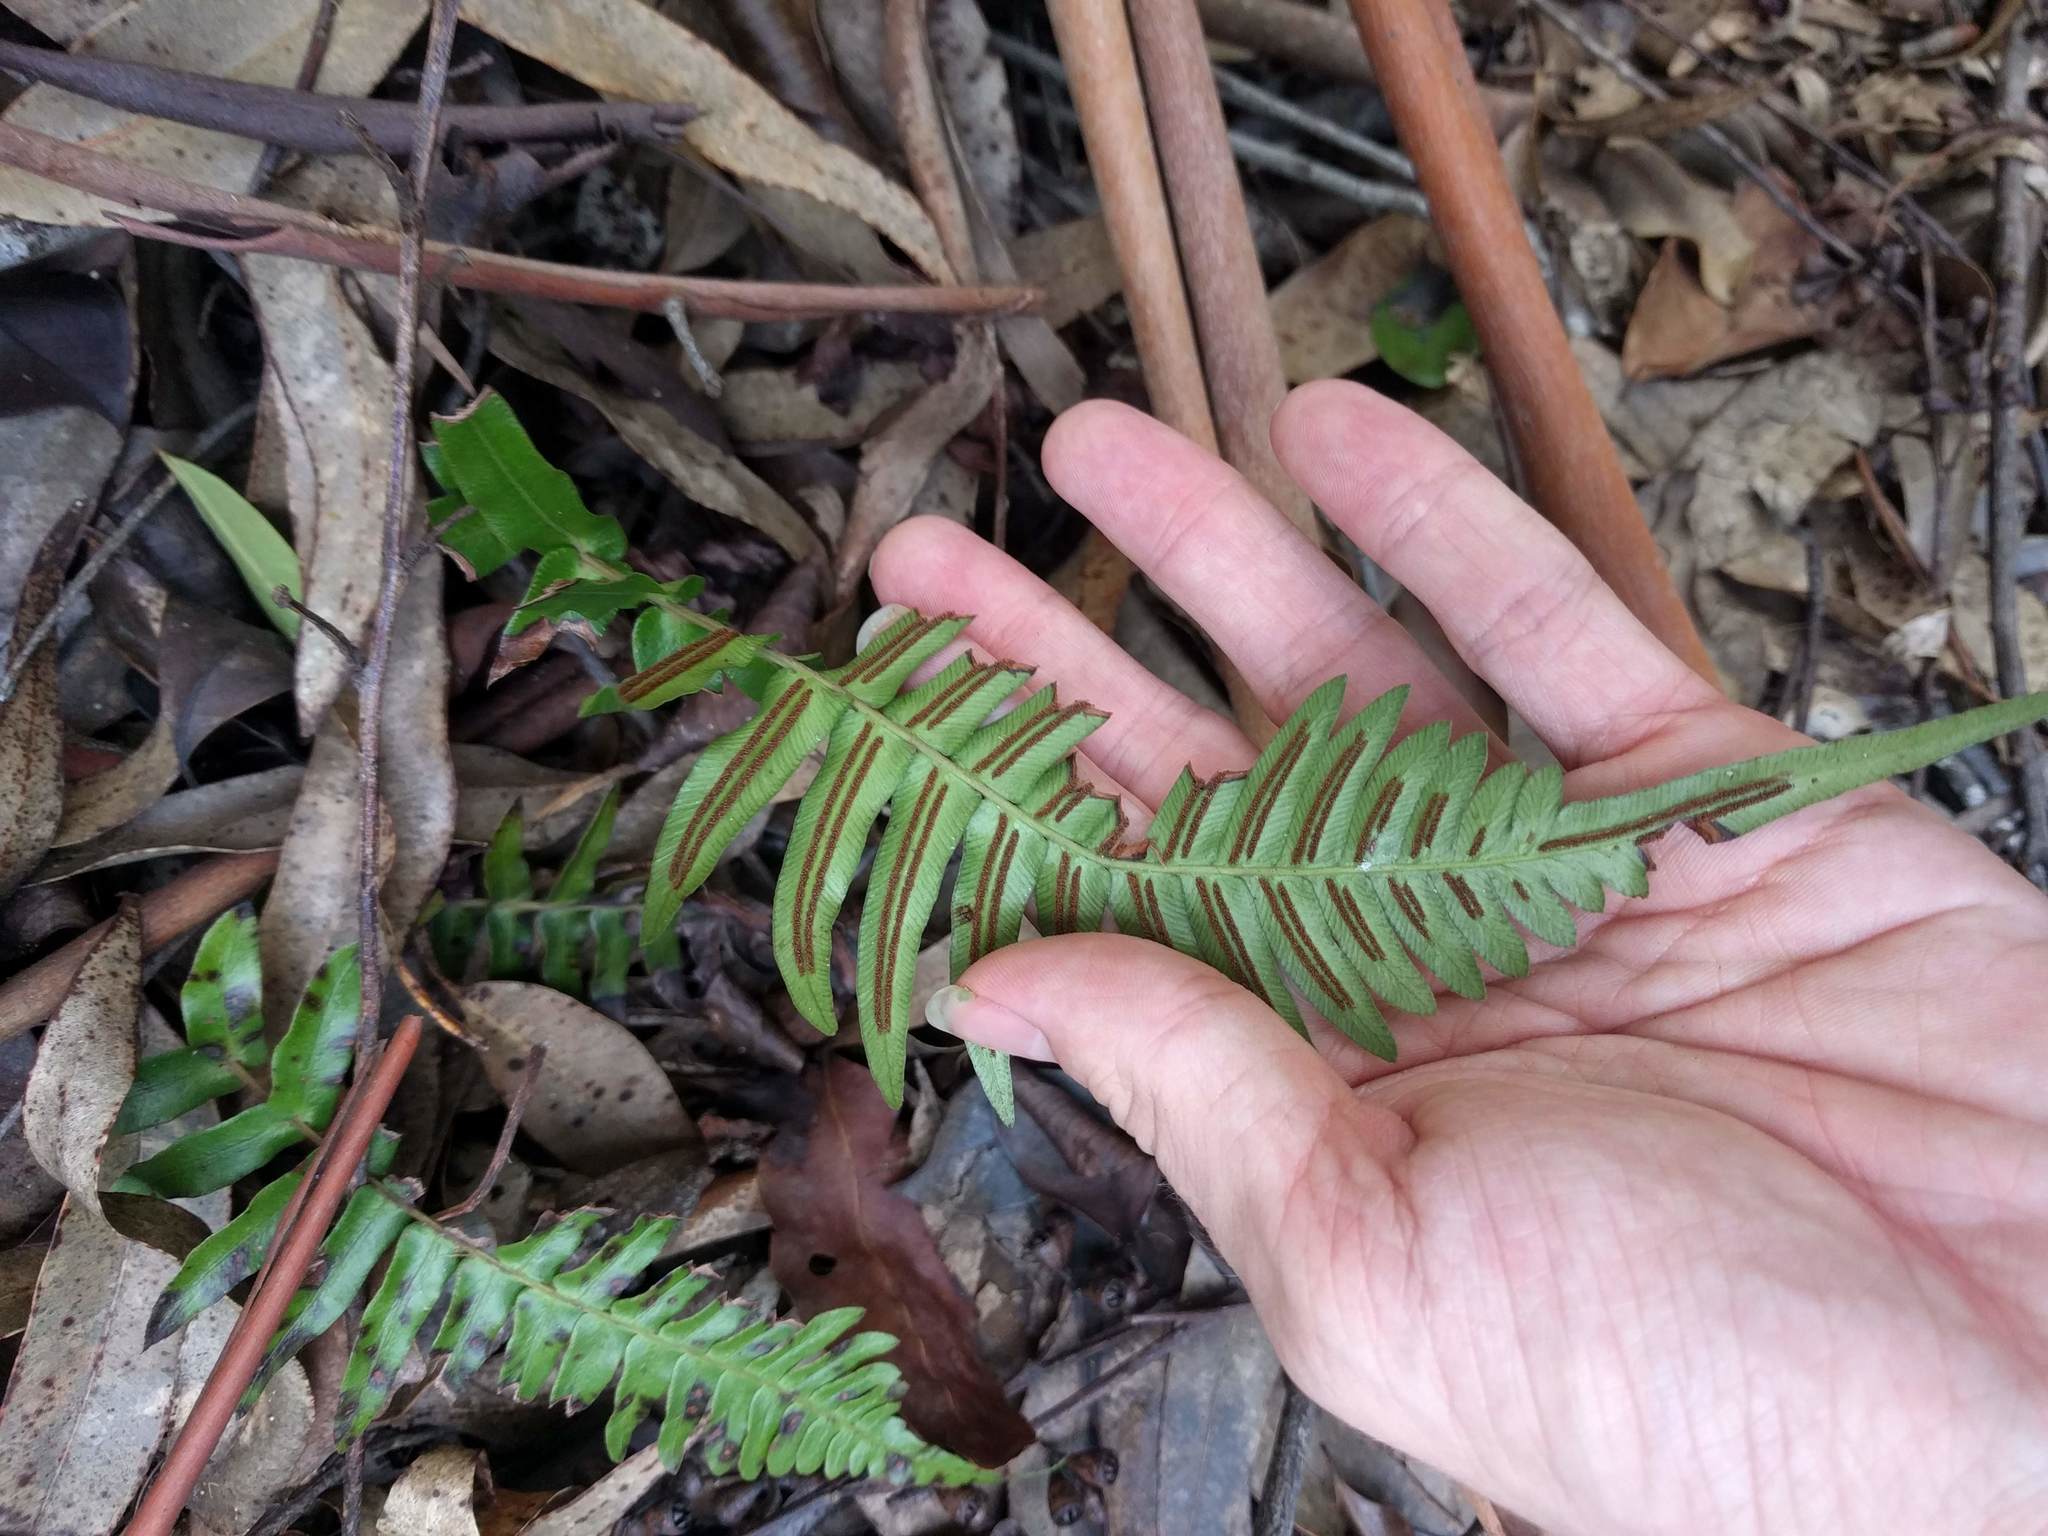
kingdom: Plantae
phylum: Tracheophyta
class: Polypodiopsida
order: Polypodiales
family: Blechnaceae
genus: Blechnum
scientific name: Blechnum appendiculatum
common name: Palm fern
